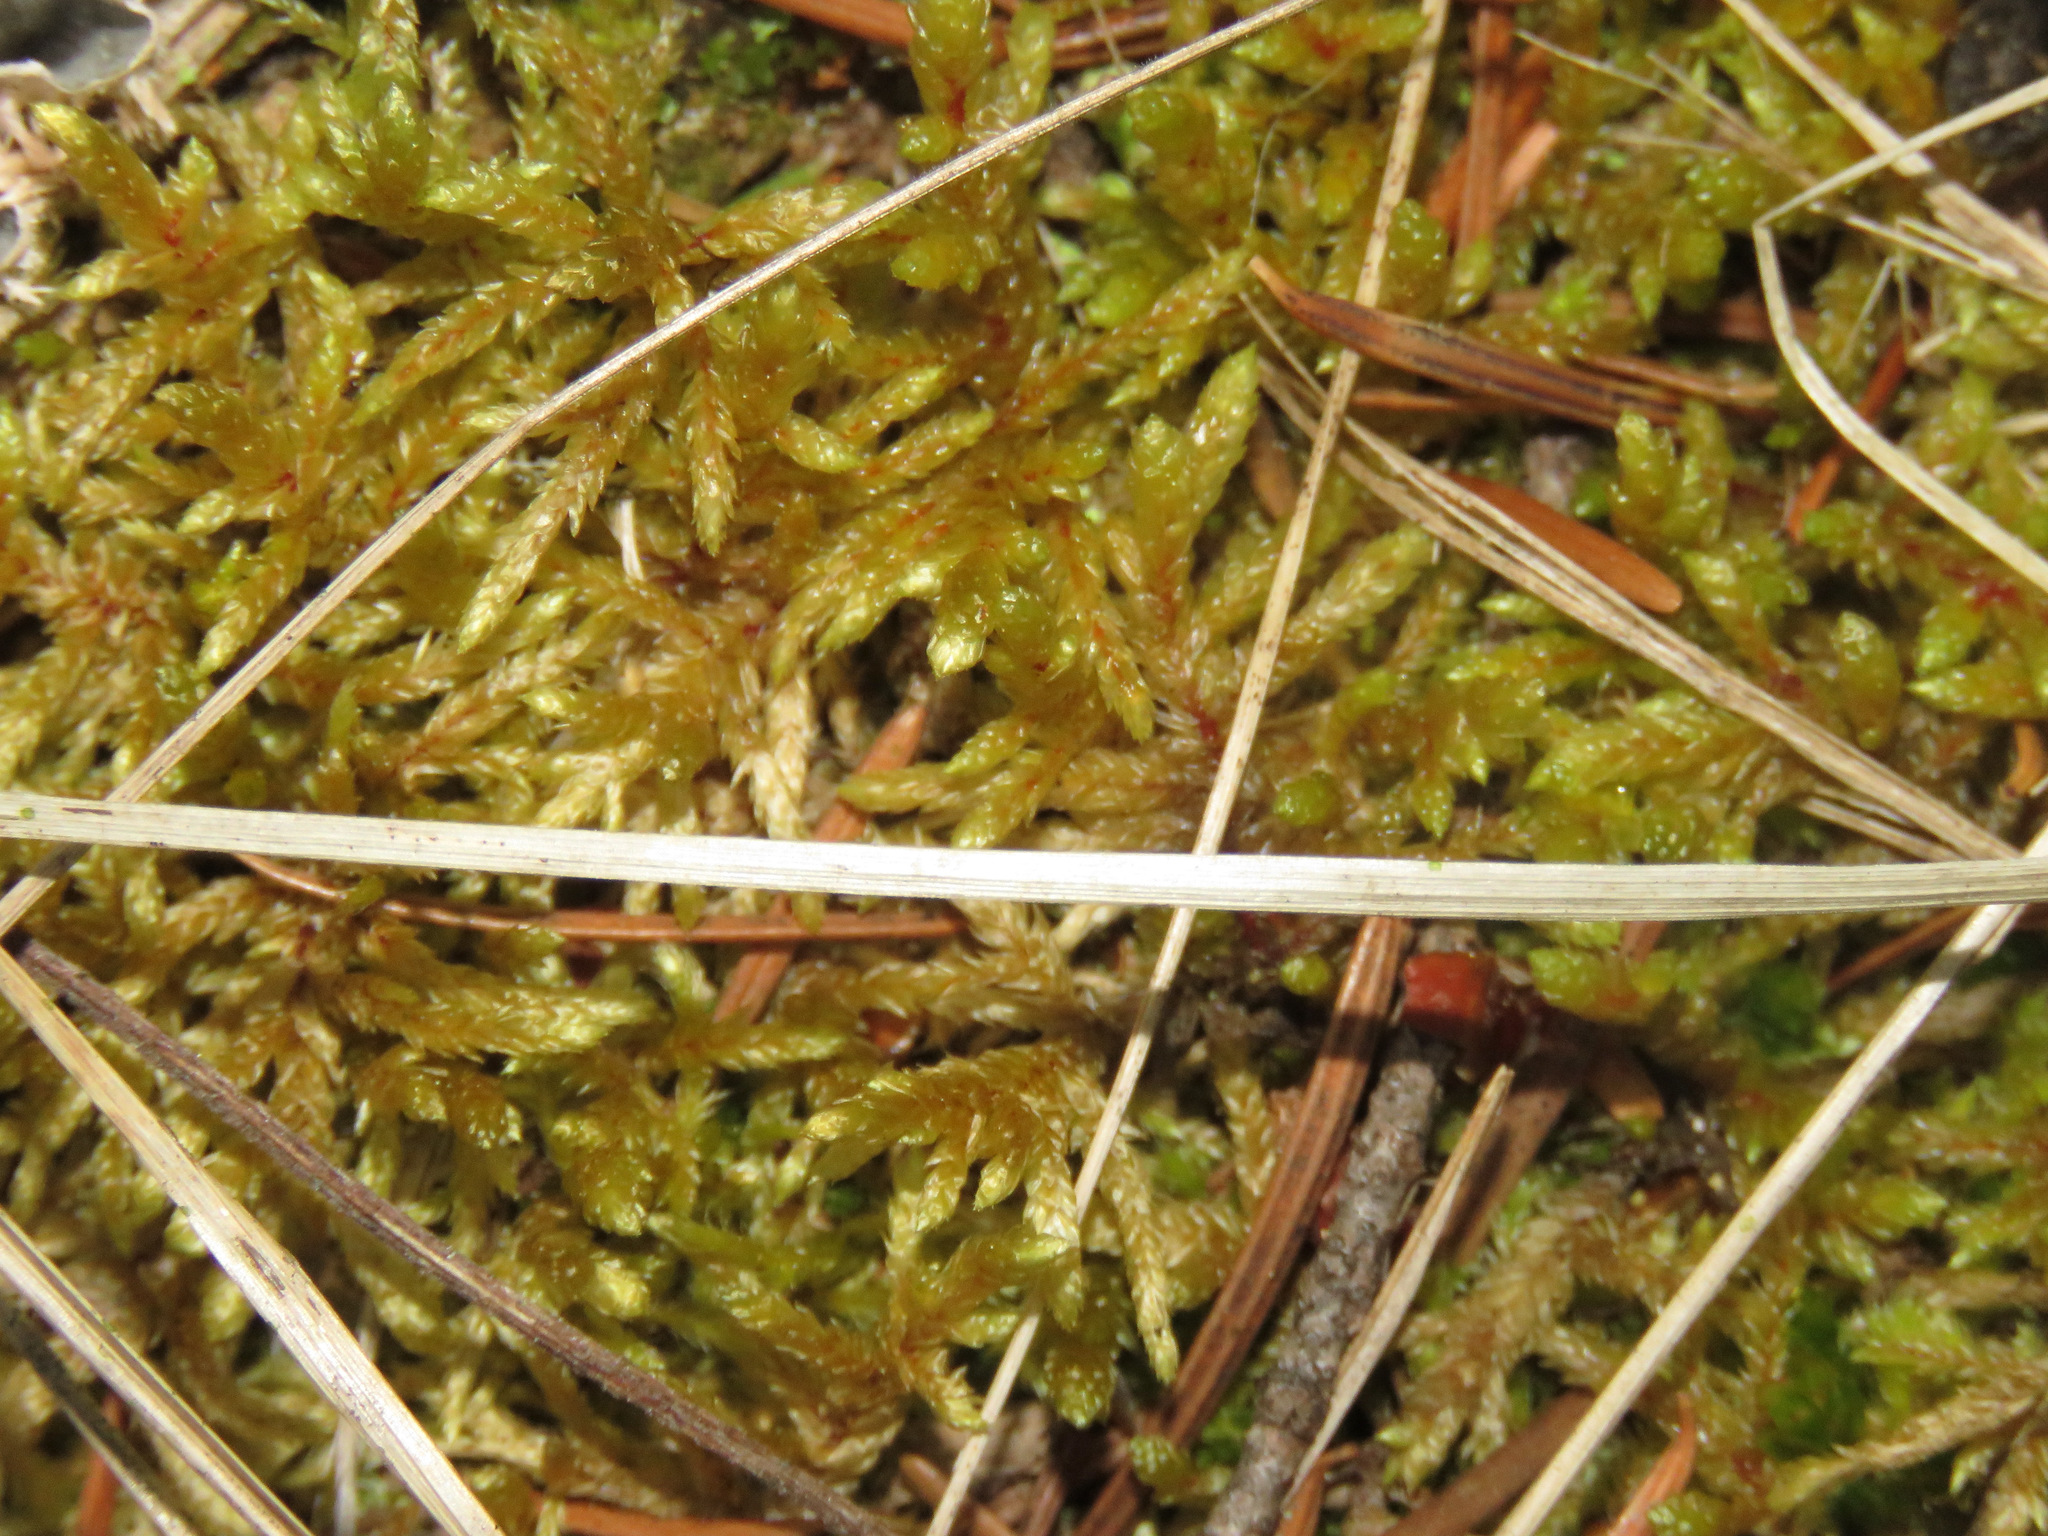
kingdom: Plantae
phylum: Bryophyta
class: Bryopsida
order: Hypnales
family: Hylocomiaceae
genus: Pleurozium
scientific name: Pleurozium schreberi
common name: Red-stemmed feather moss
